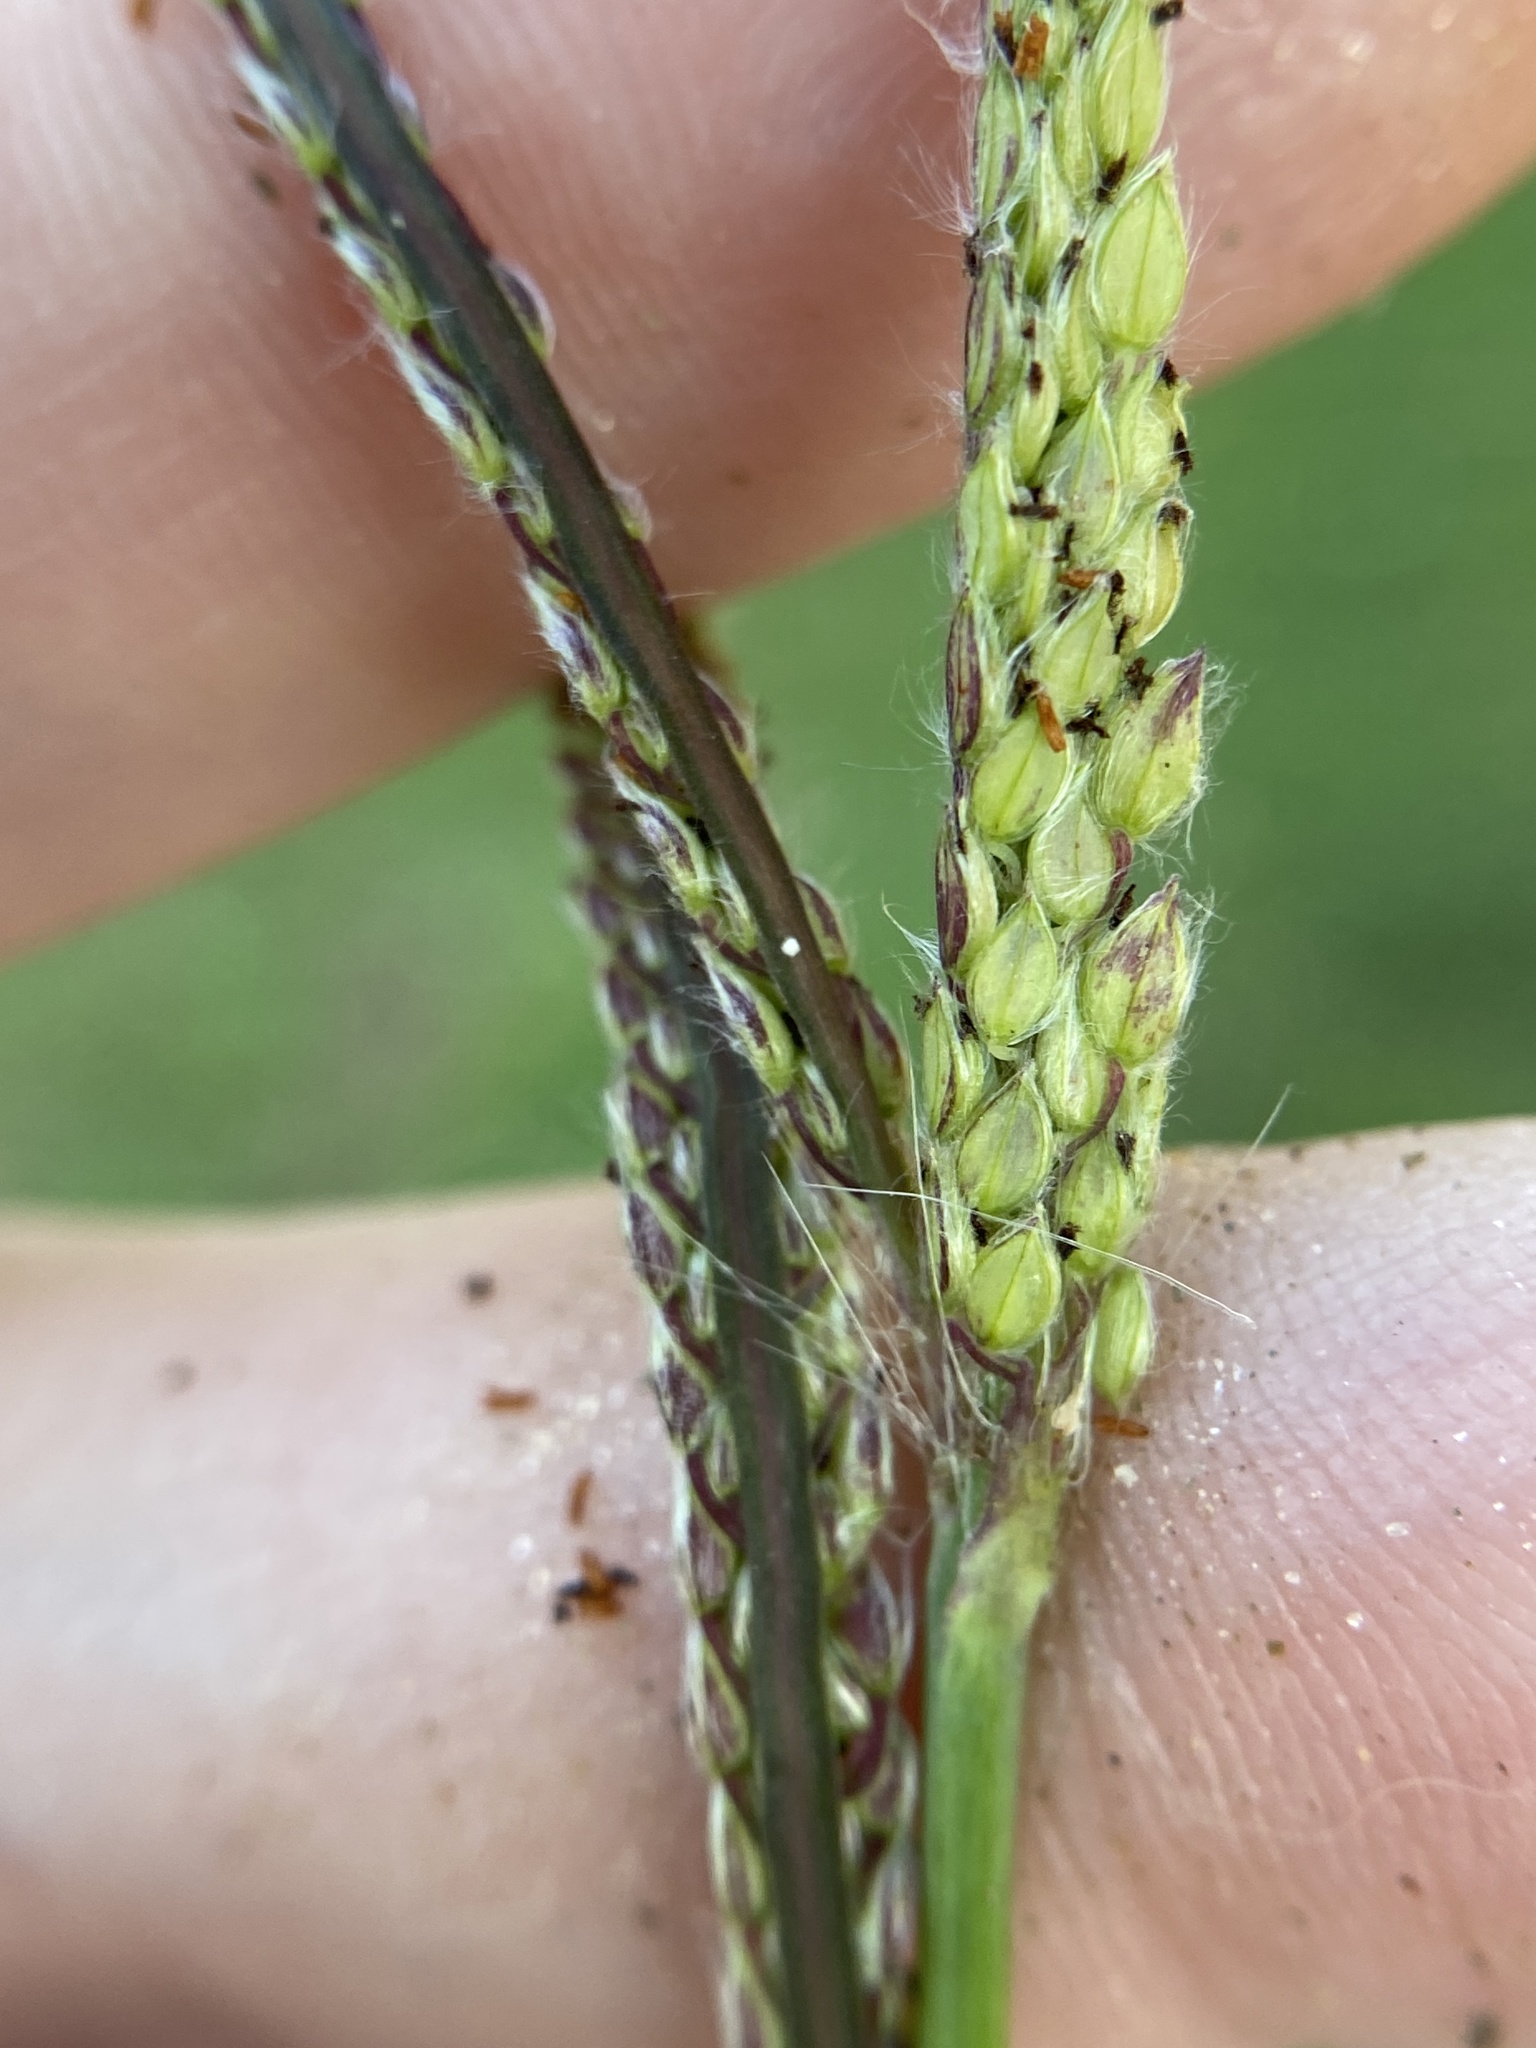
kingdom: Plantae
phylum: Tracheophyta
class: Liliopsida
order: Poales
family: Poaceae
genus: Paspalum
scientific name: Paspalum urvillei
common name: Vasey's grass
